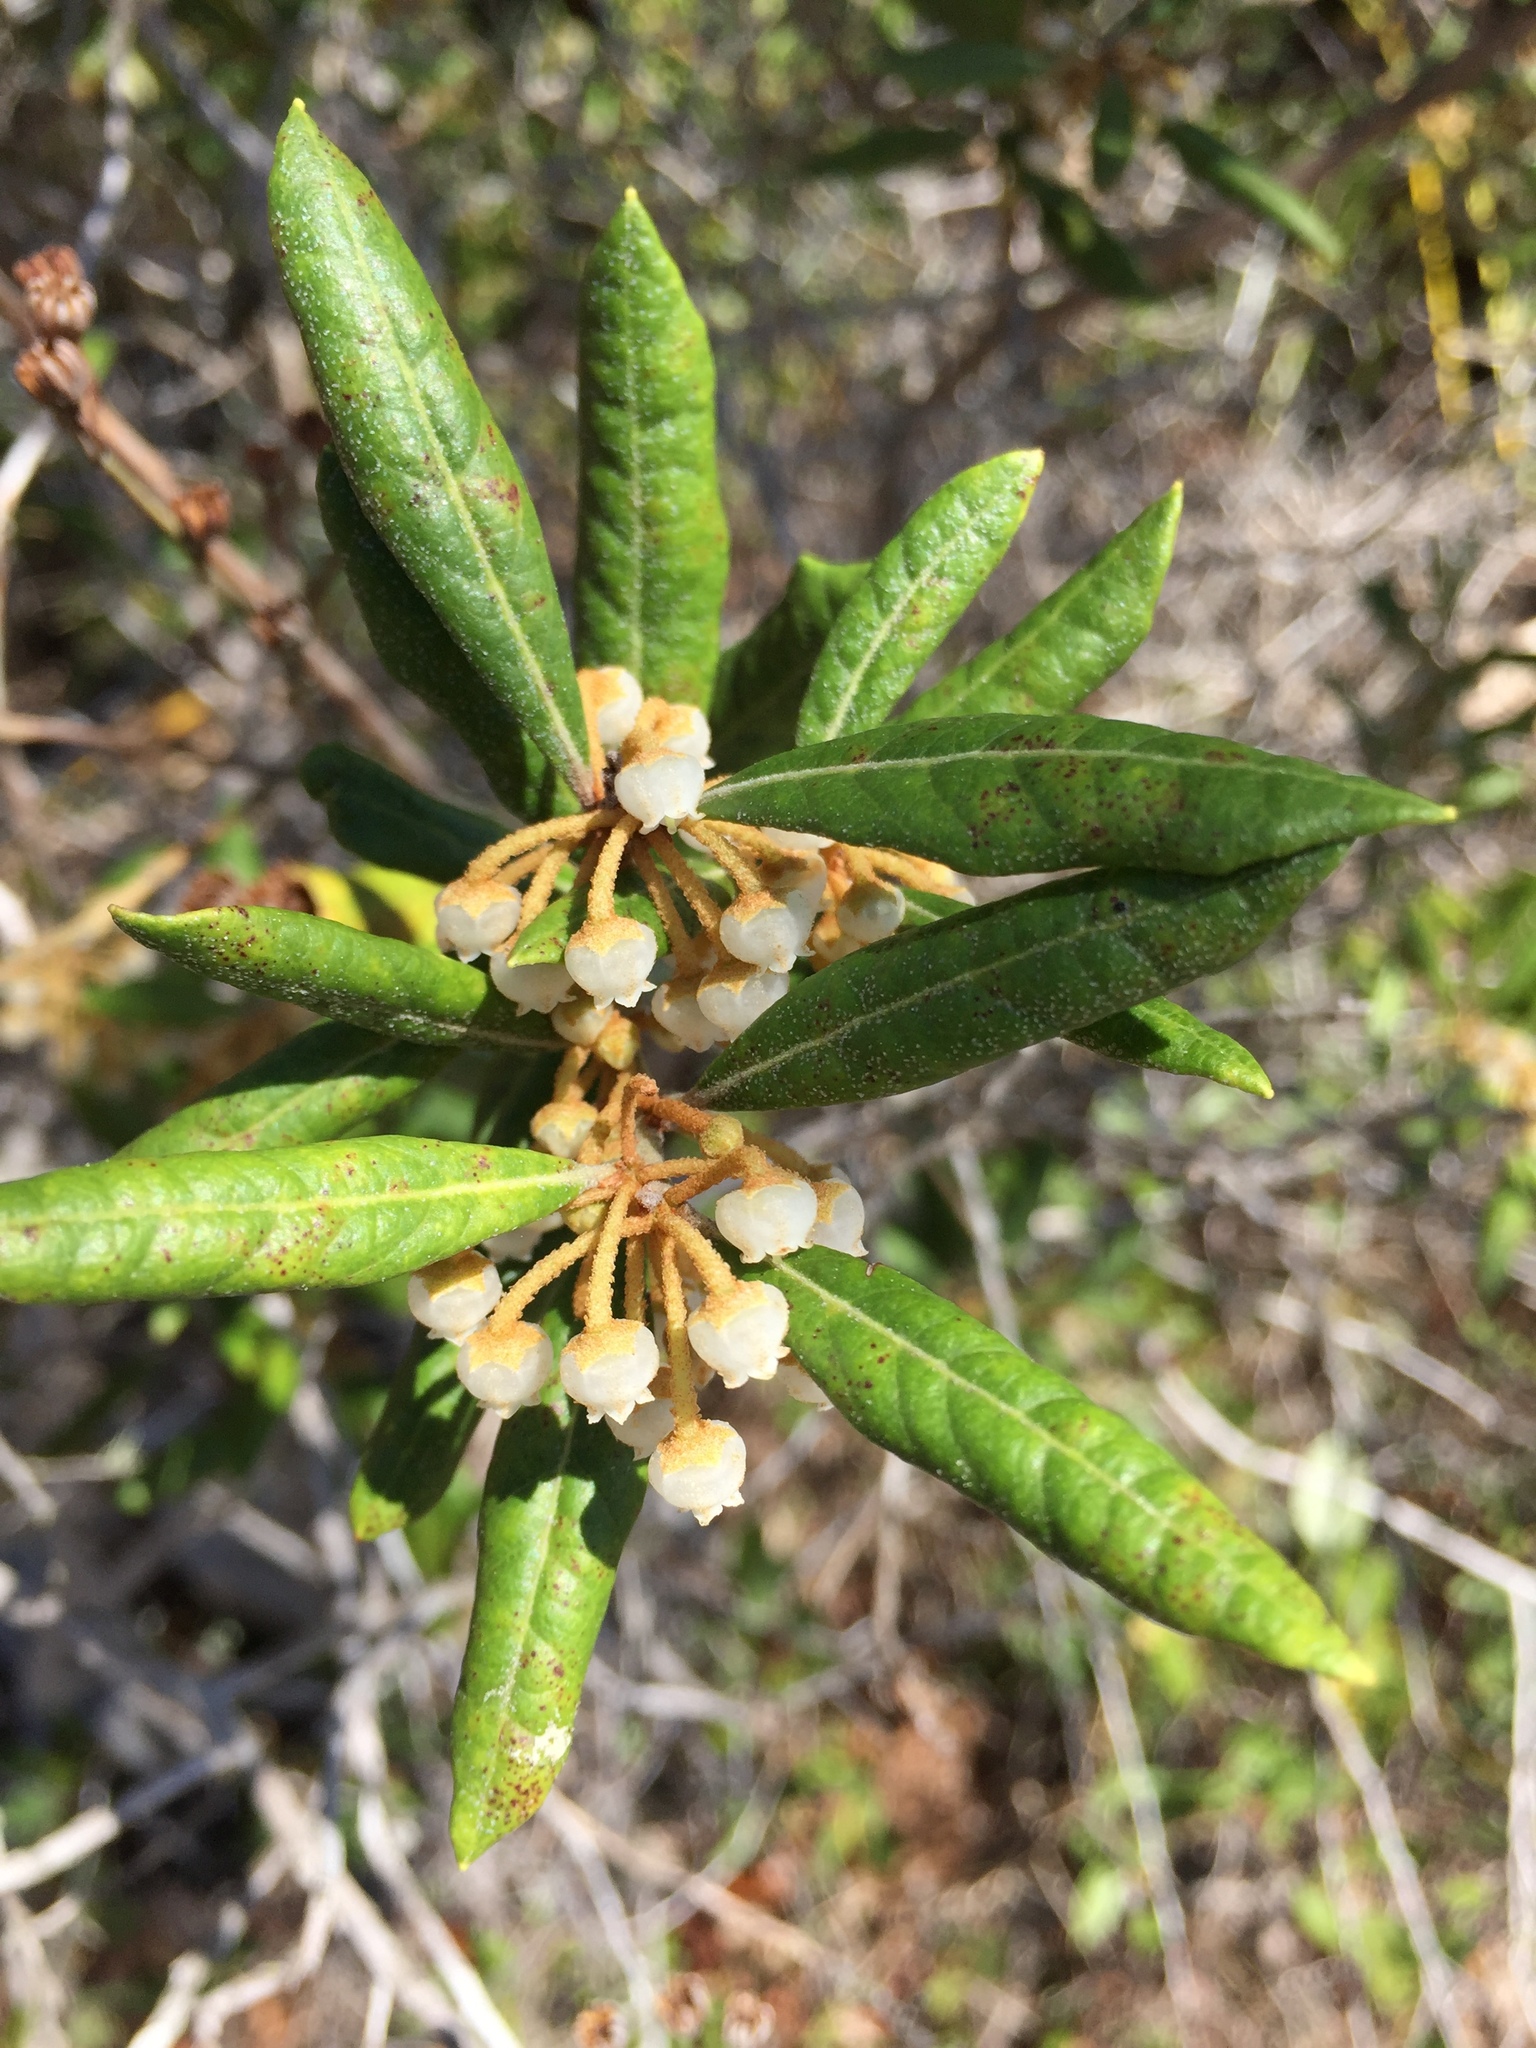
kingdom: Plantae
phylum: Tracheophyta
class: Magnoliopsida
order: Ericales
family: Ericaceae
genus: Lyonia
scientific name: Lyonia ferruginea
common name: Rusty lyonia
